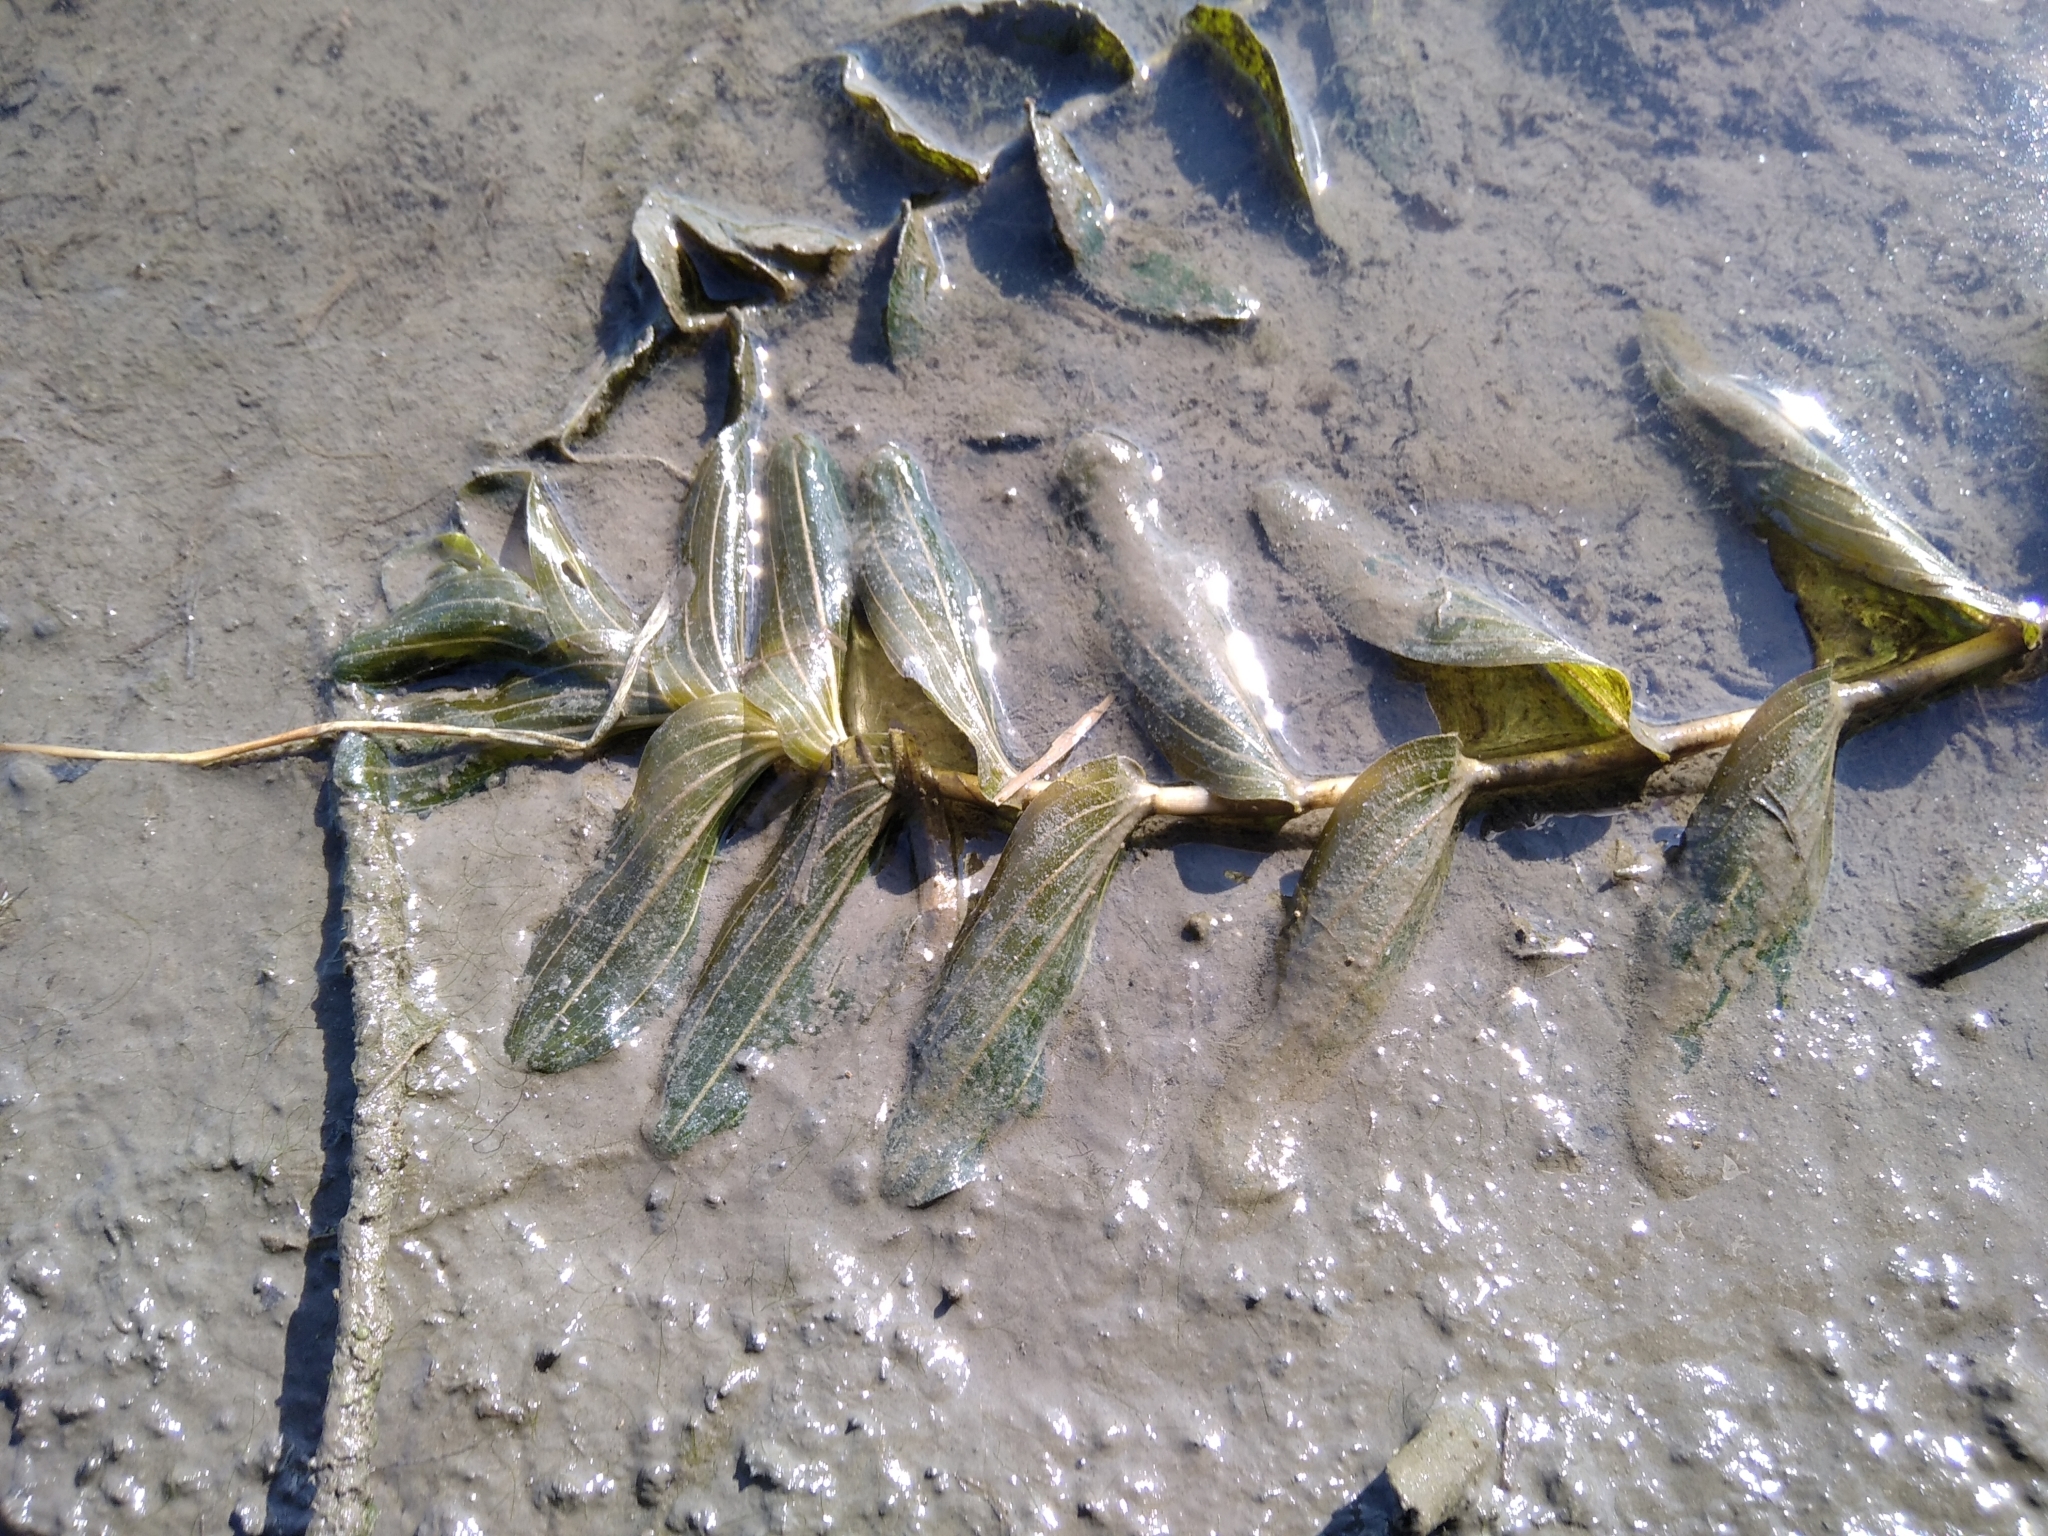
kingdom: Plantae
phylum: Tracheophyta
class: Liliopsida
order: Alismatales
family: Potamogetonaceae
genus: Potamogeton
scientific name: Potamogeton perfoliatus
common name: Perfoliate pondweed
